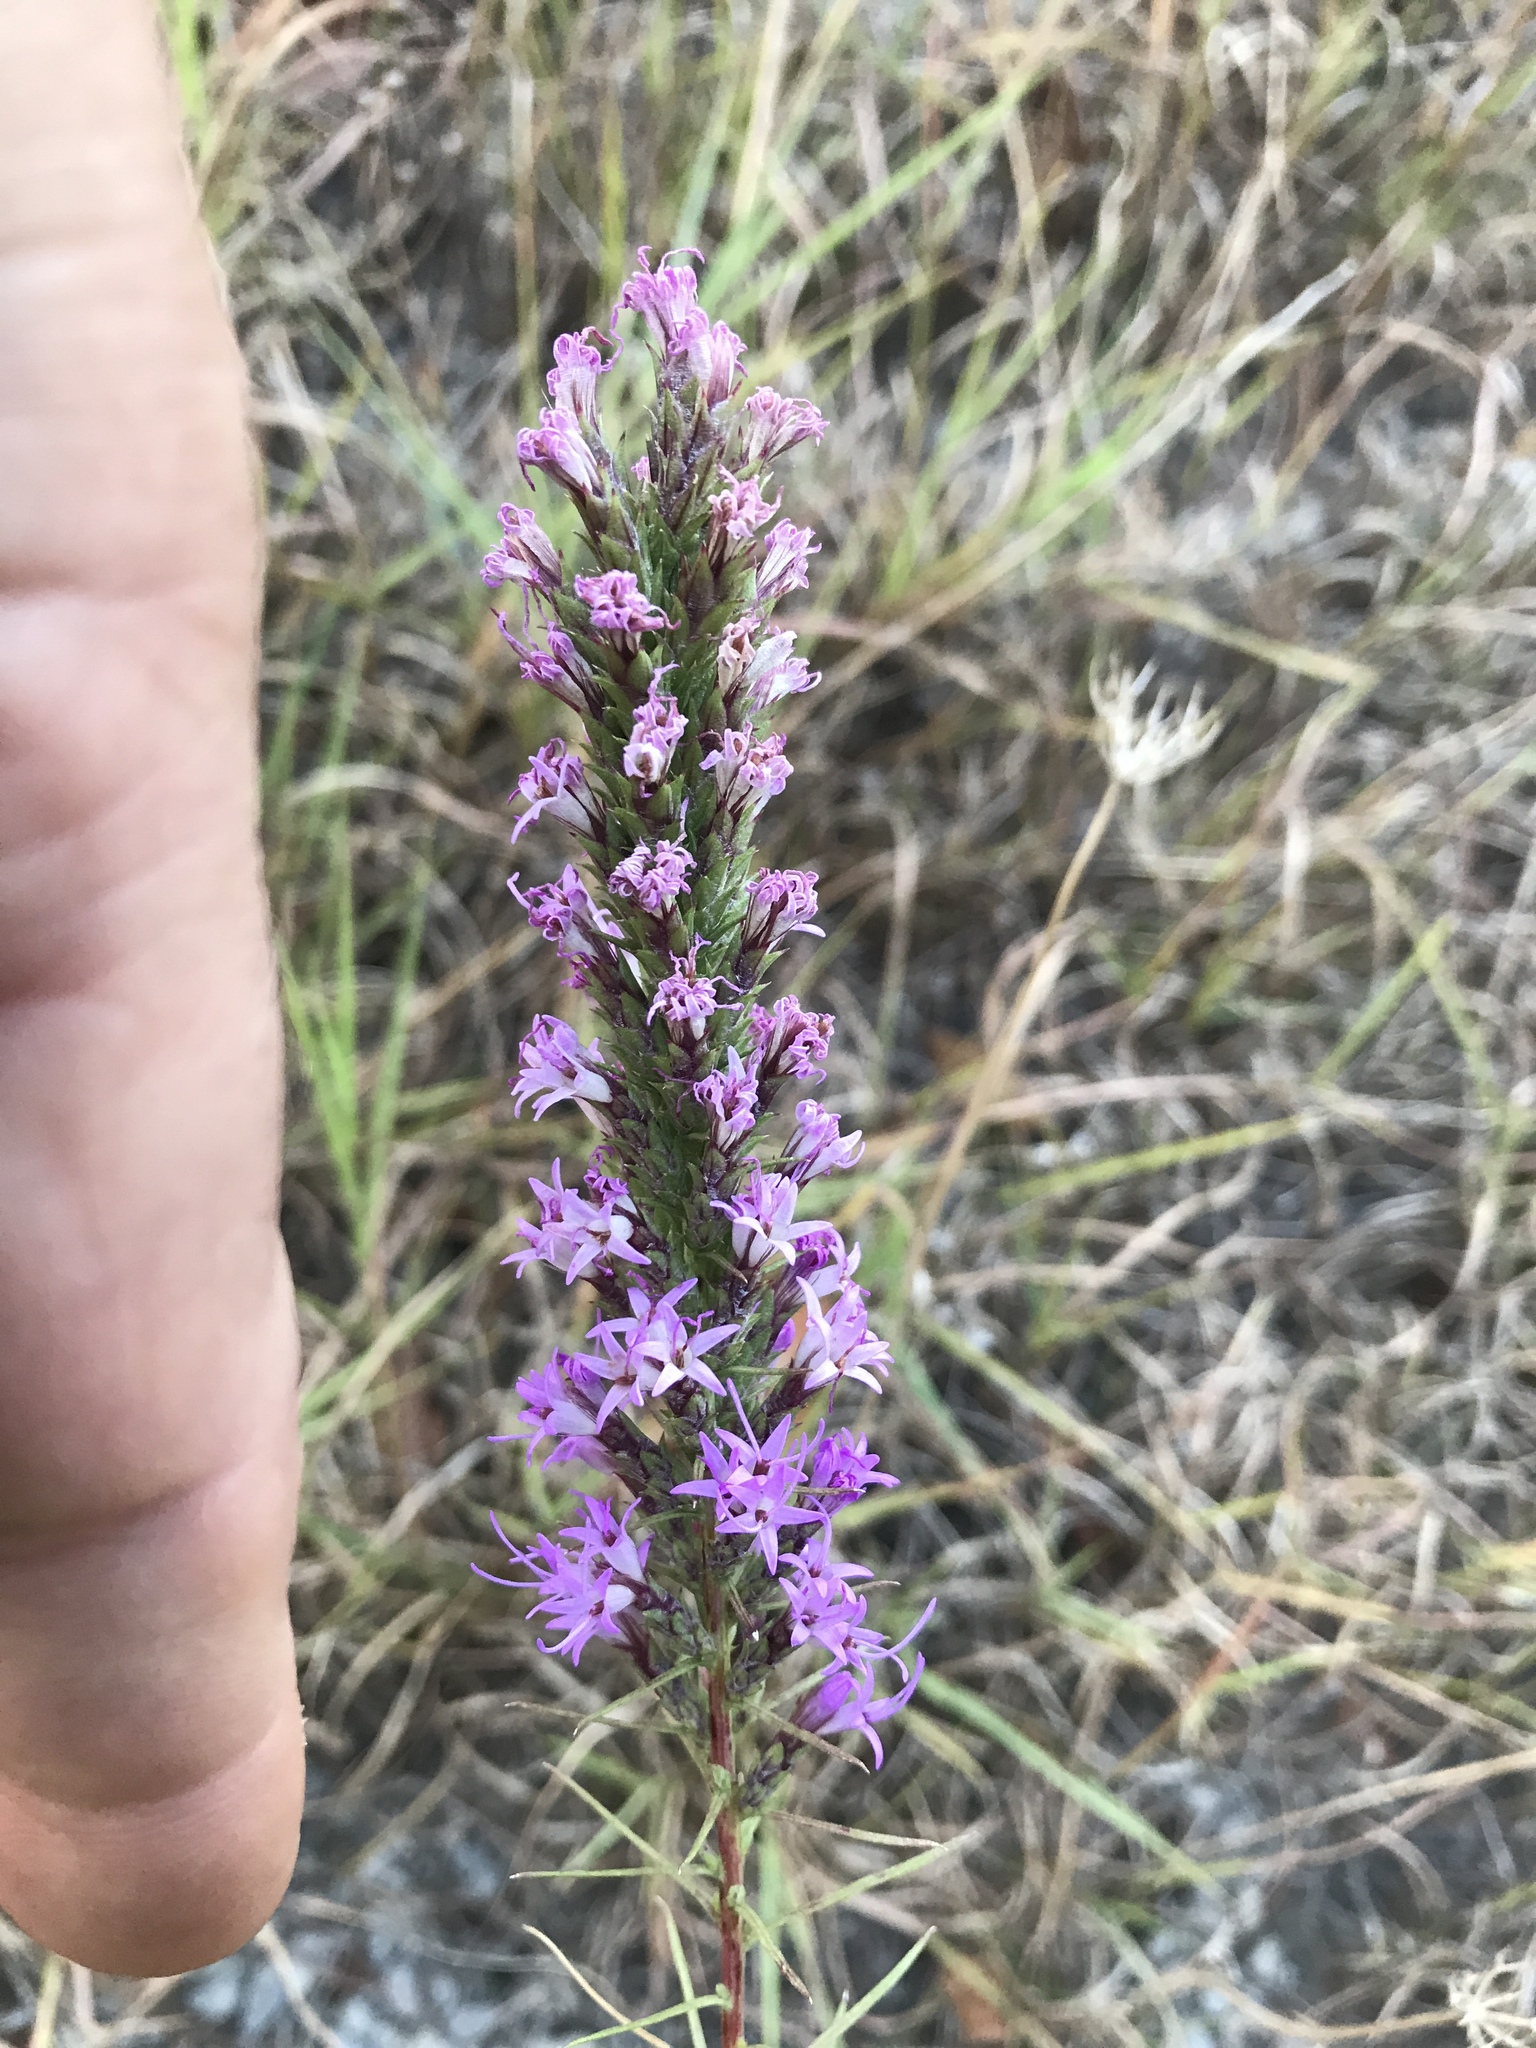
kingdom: Plantae
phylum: Tracheophyta
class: Magnoliopsida
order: Asterales
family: Asteraceae
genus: Liatris
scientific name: Liatris punctata
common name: Dotted gayfeather
